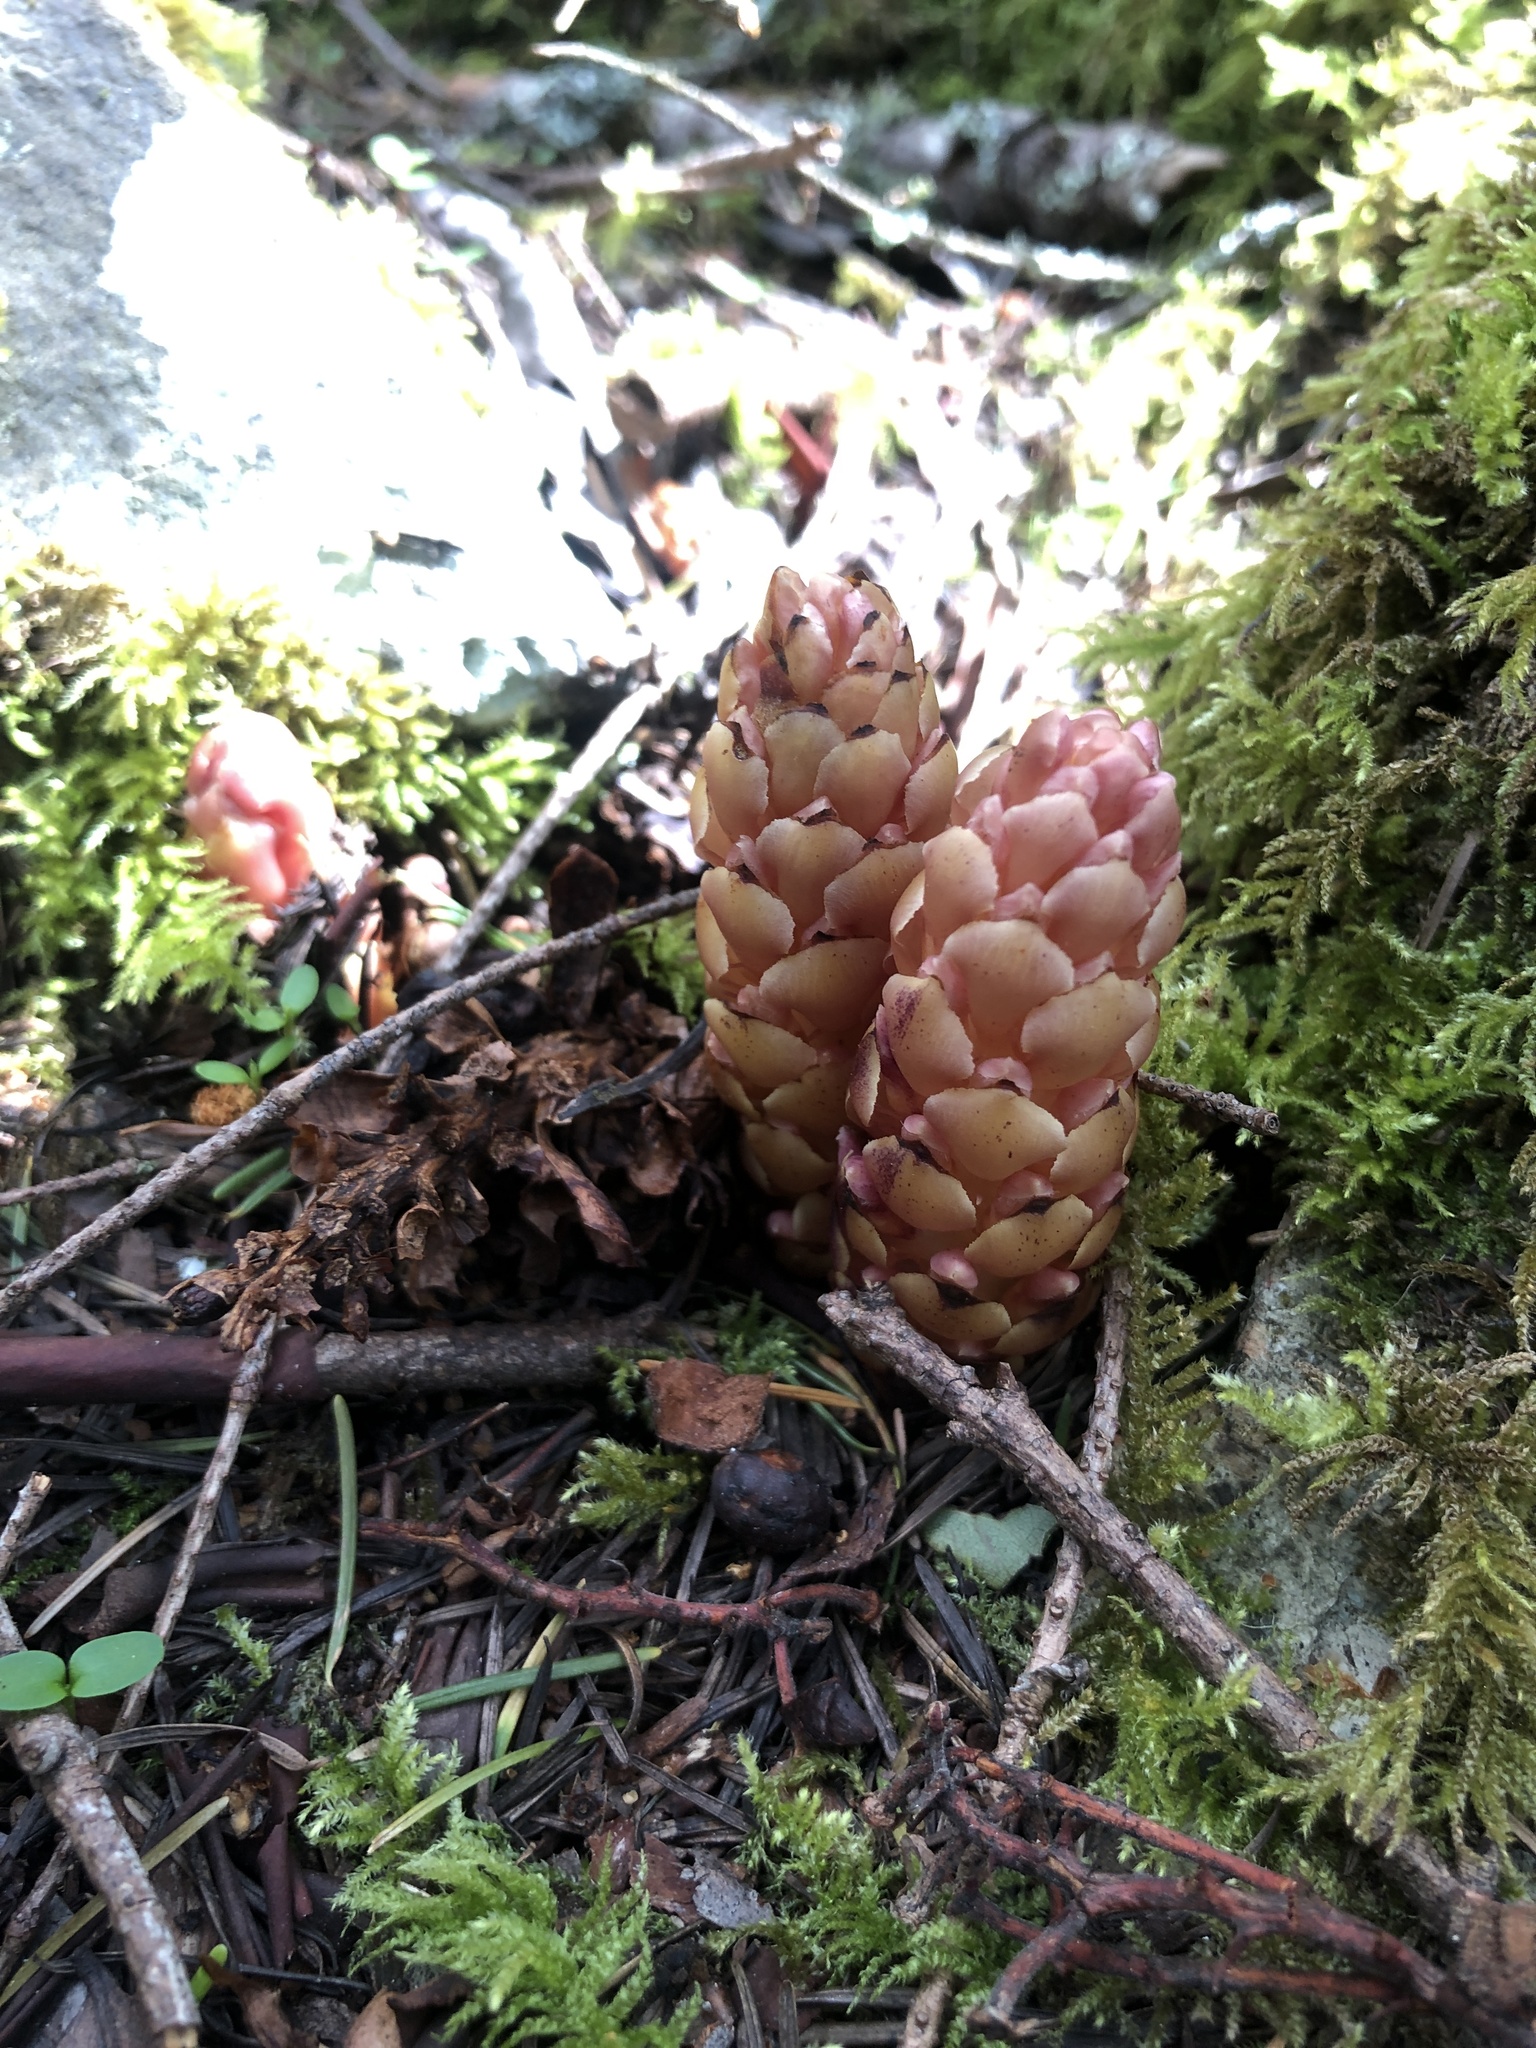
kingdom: Plantae
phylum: Tracheophyta
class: Magnoliopsida
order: Lamiales
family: Orobanchaceae
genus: Kopsiopsis
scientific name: Kopsiopsis hookeri
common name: Hooker's groundcone
